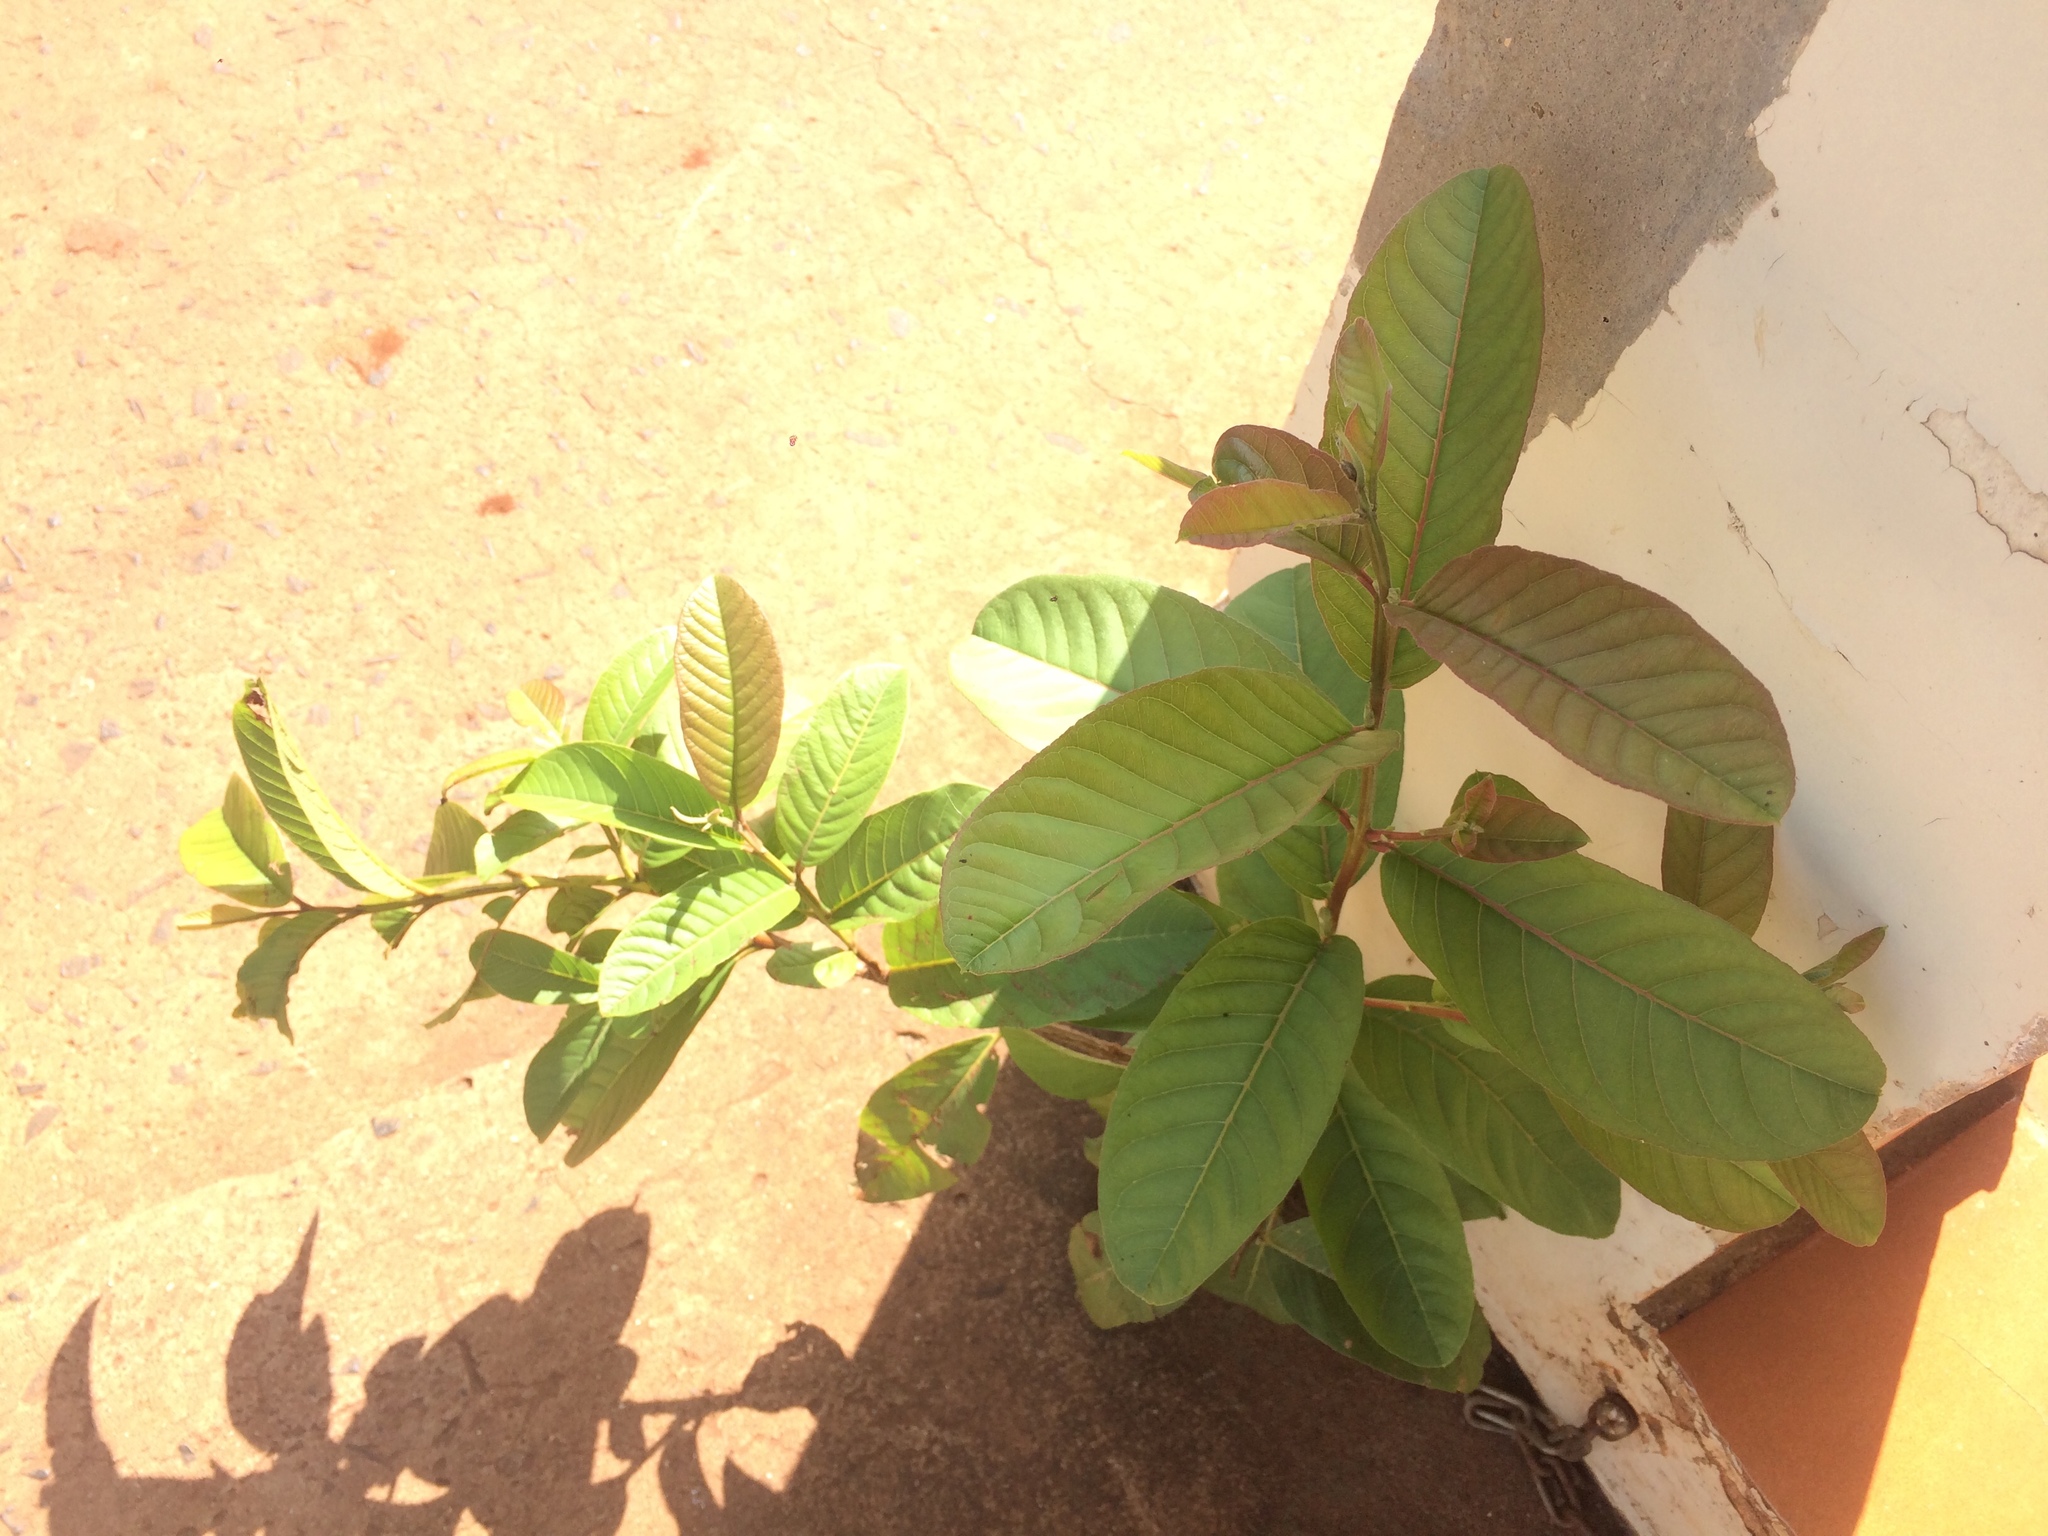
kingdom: Plantae
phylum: Tracheophyta
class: Magnoliopsida
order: Myrtales
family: Myrtaceae
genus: Psidium
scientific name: Psidium guajava
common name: Guava
